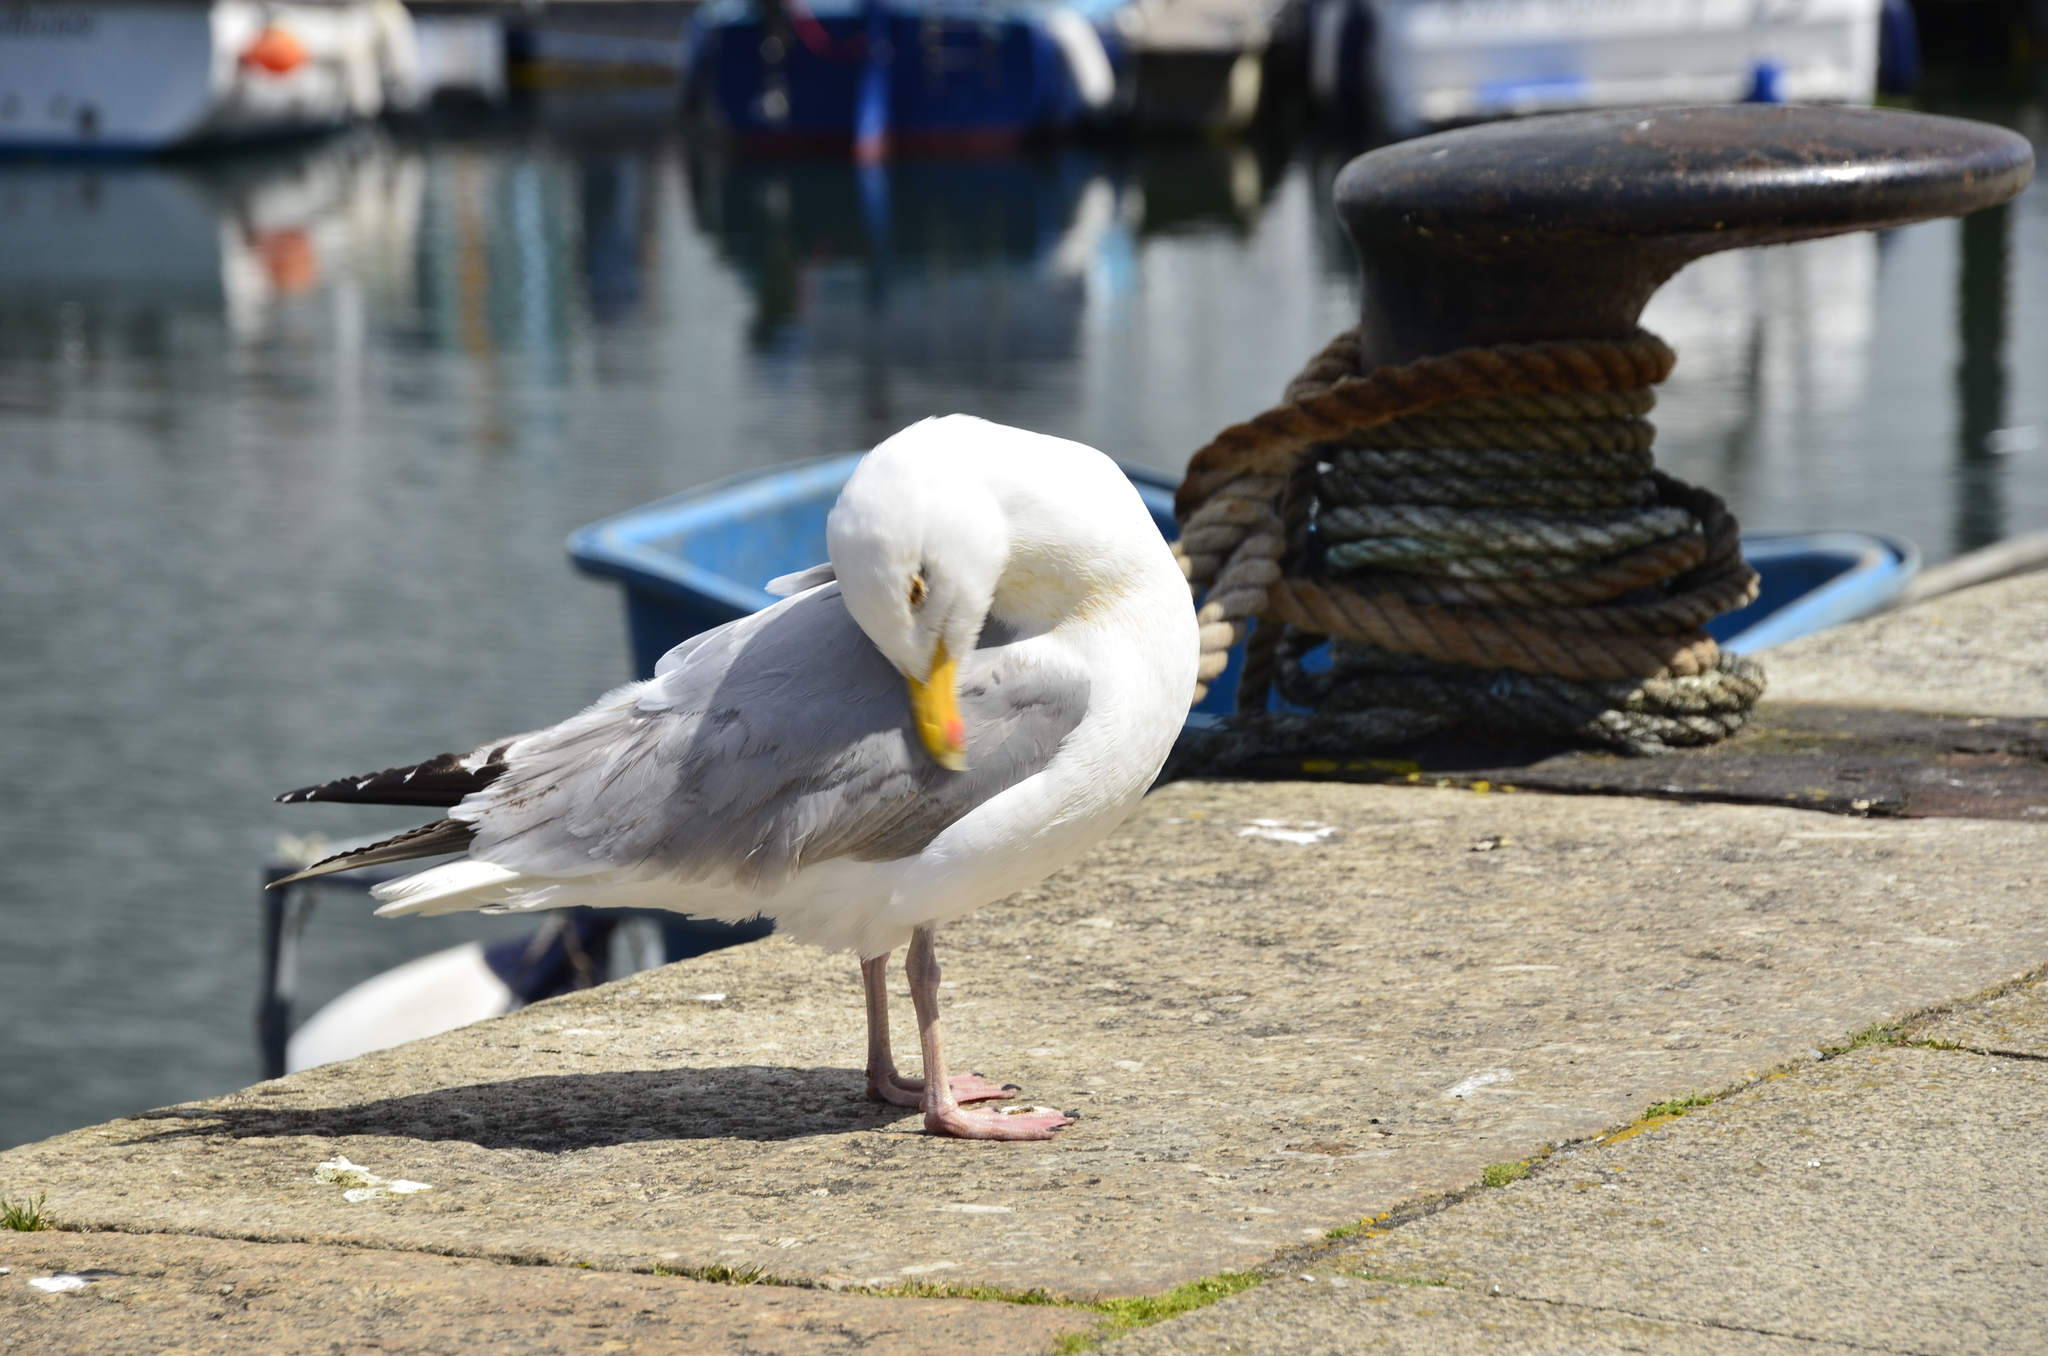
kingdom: Animalia
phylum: Chordata
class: Aves
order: Charadriiformes
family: Laridae
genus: Larus
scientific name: Larus argentatus
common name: Herring gull
